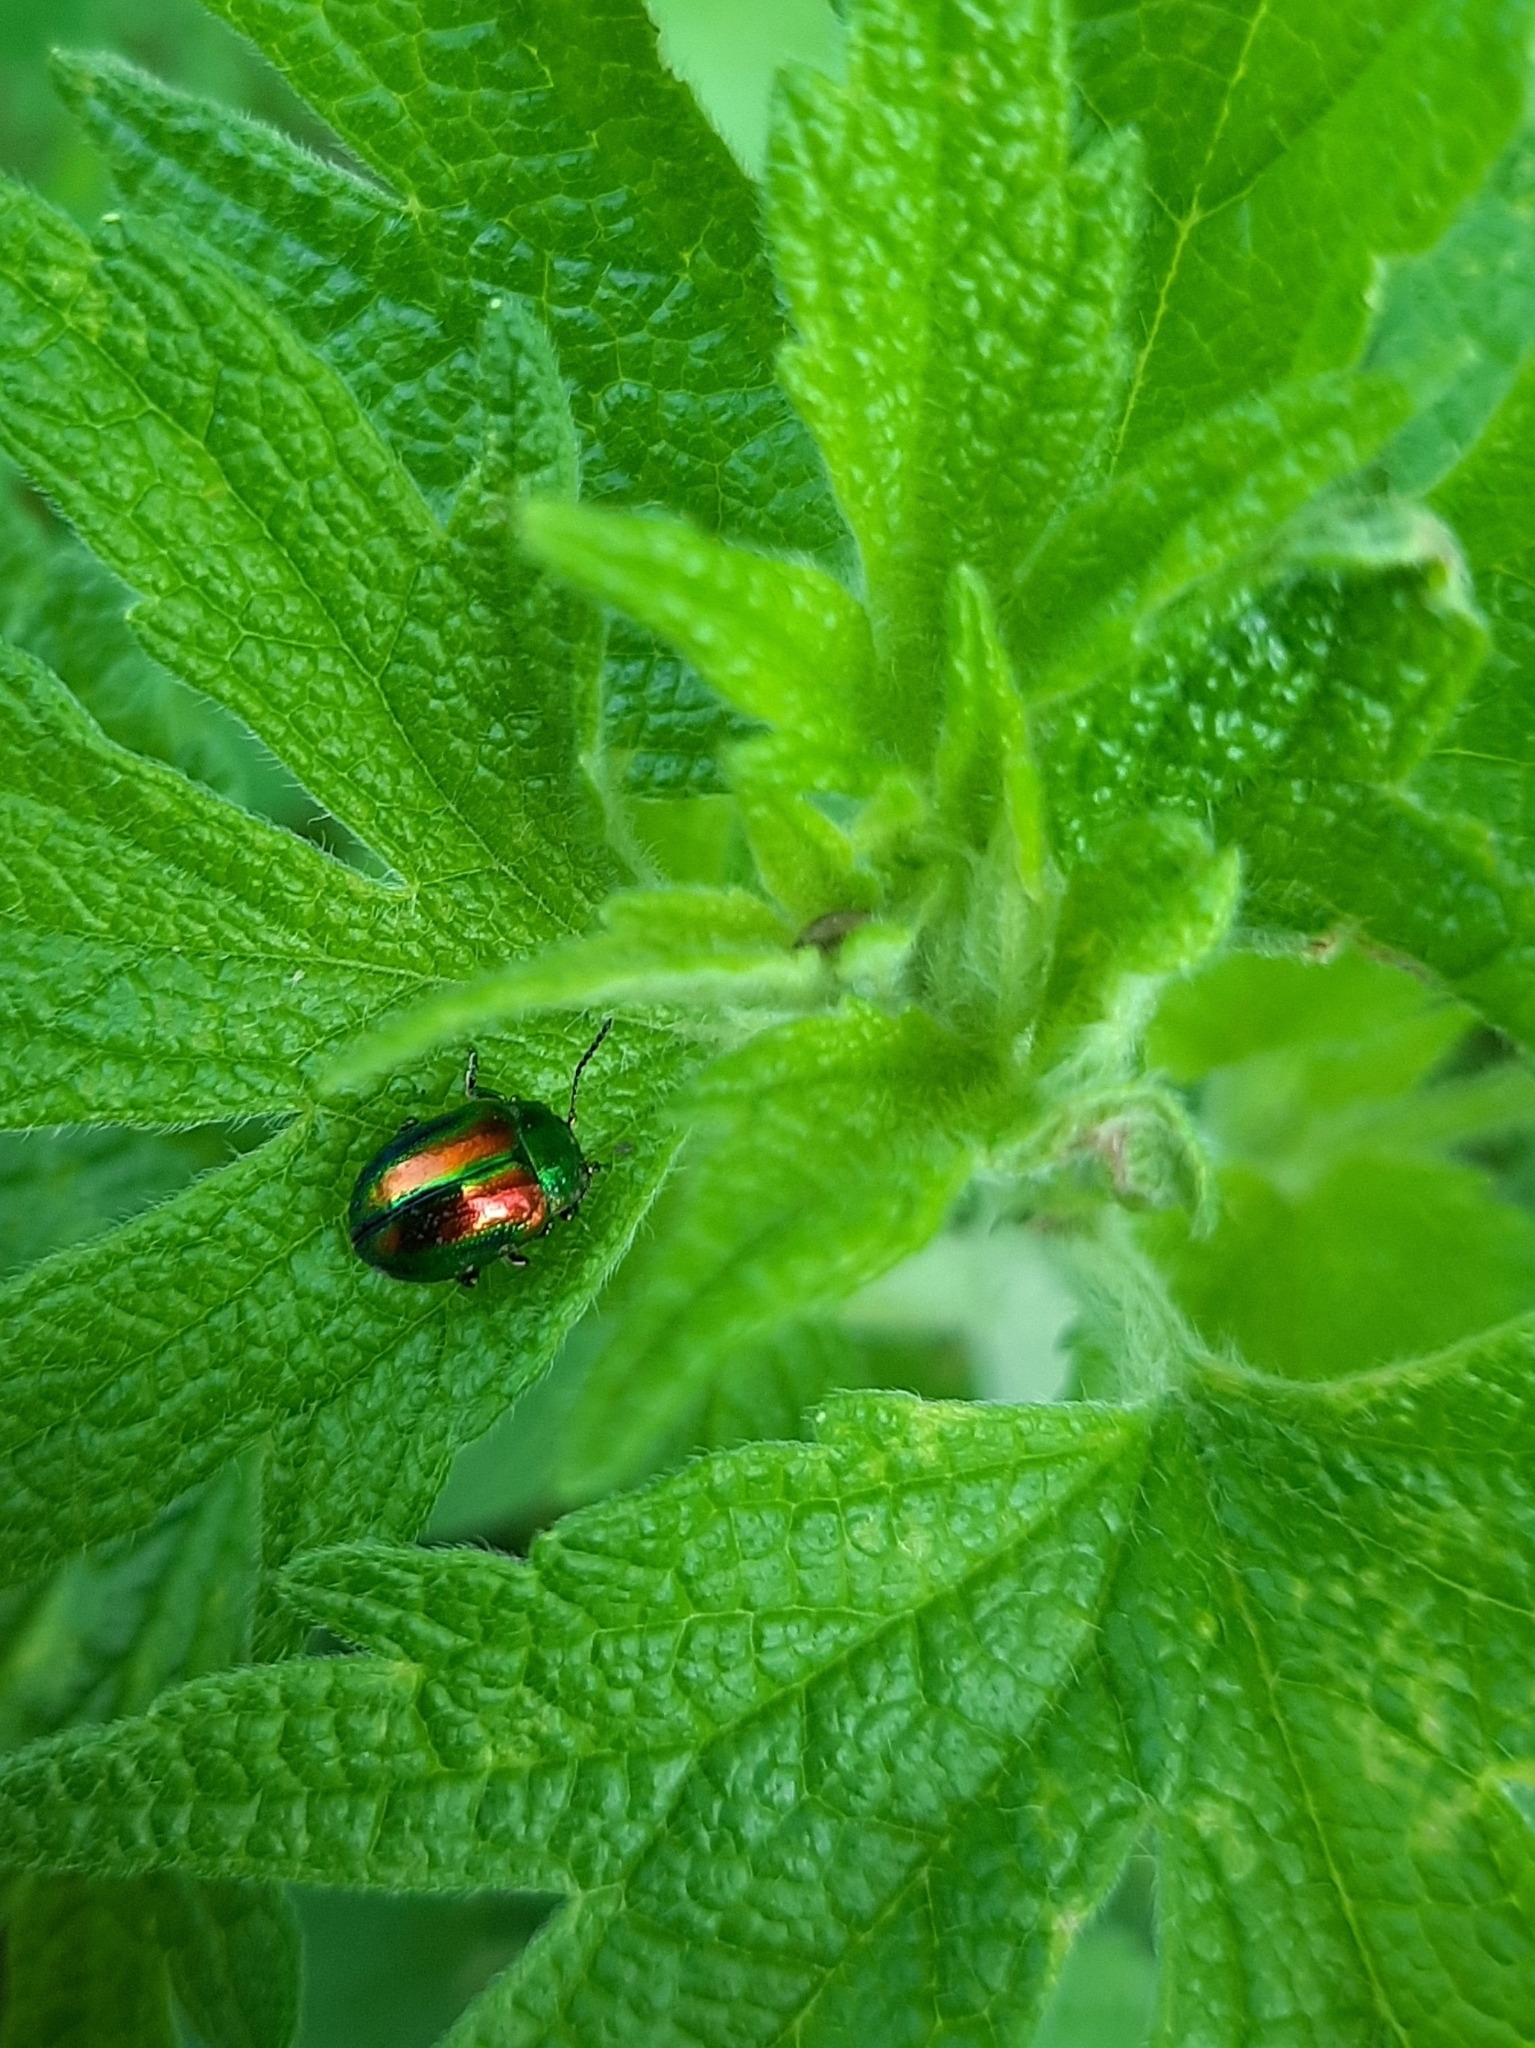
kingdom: Animalia
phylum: Arthropoda
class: Insecta
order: Coleoptera
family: Chrysomelidae
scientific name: Chrysomelidae
